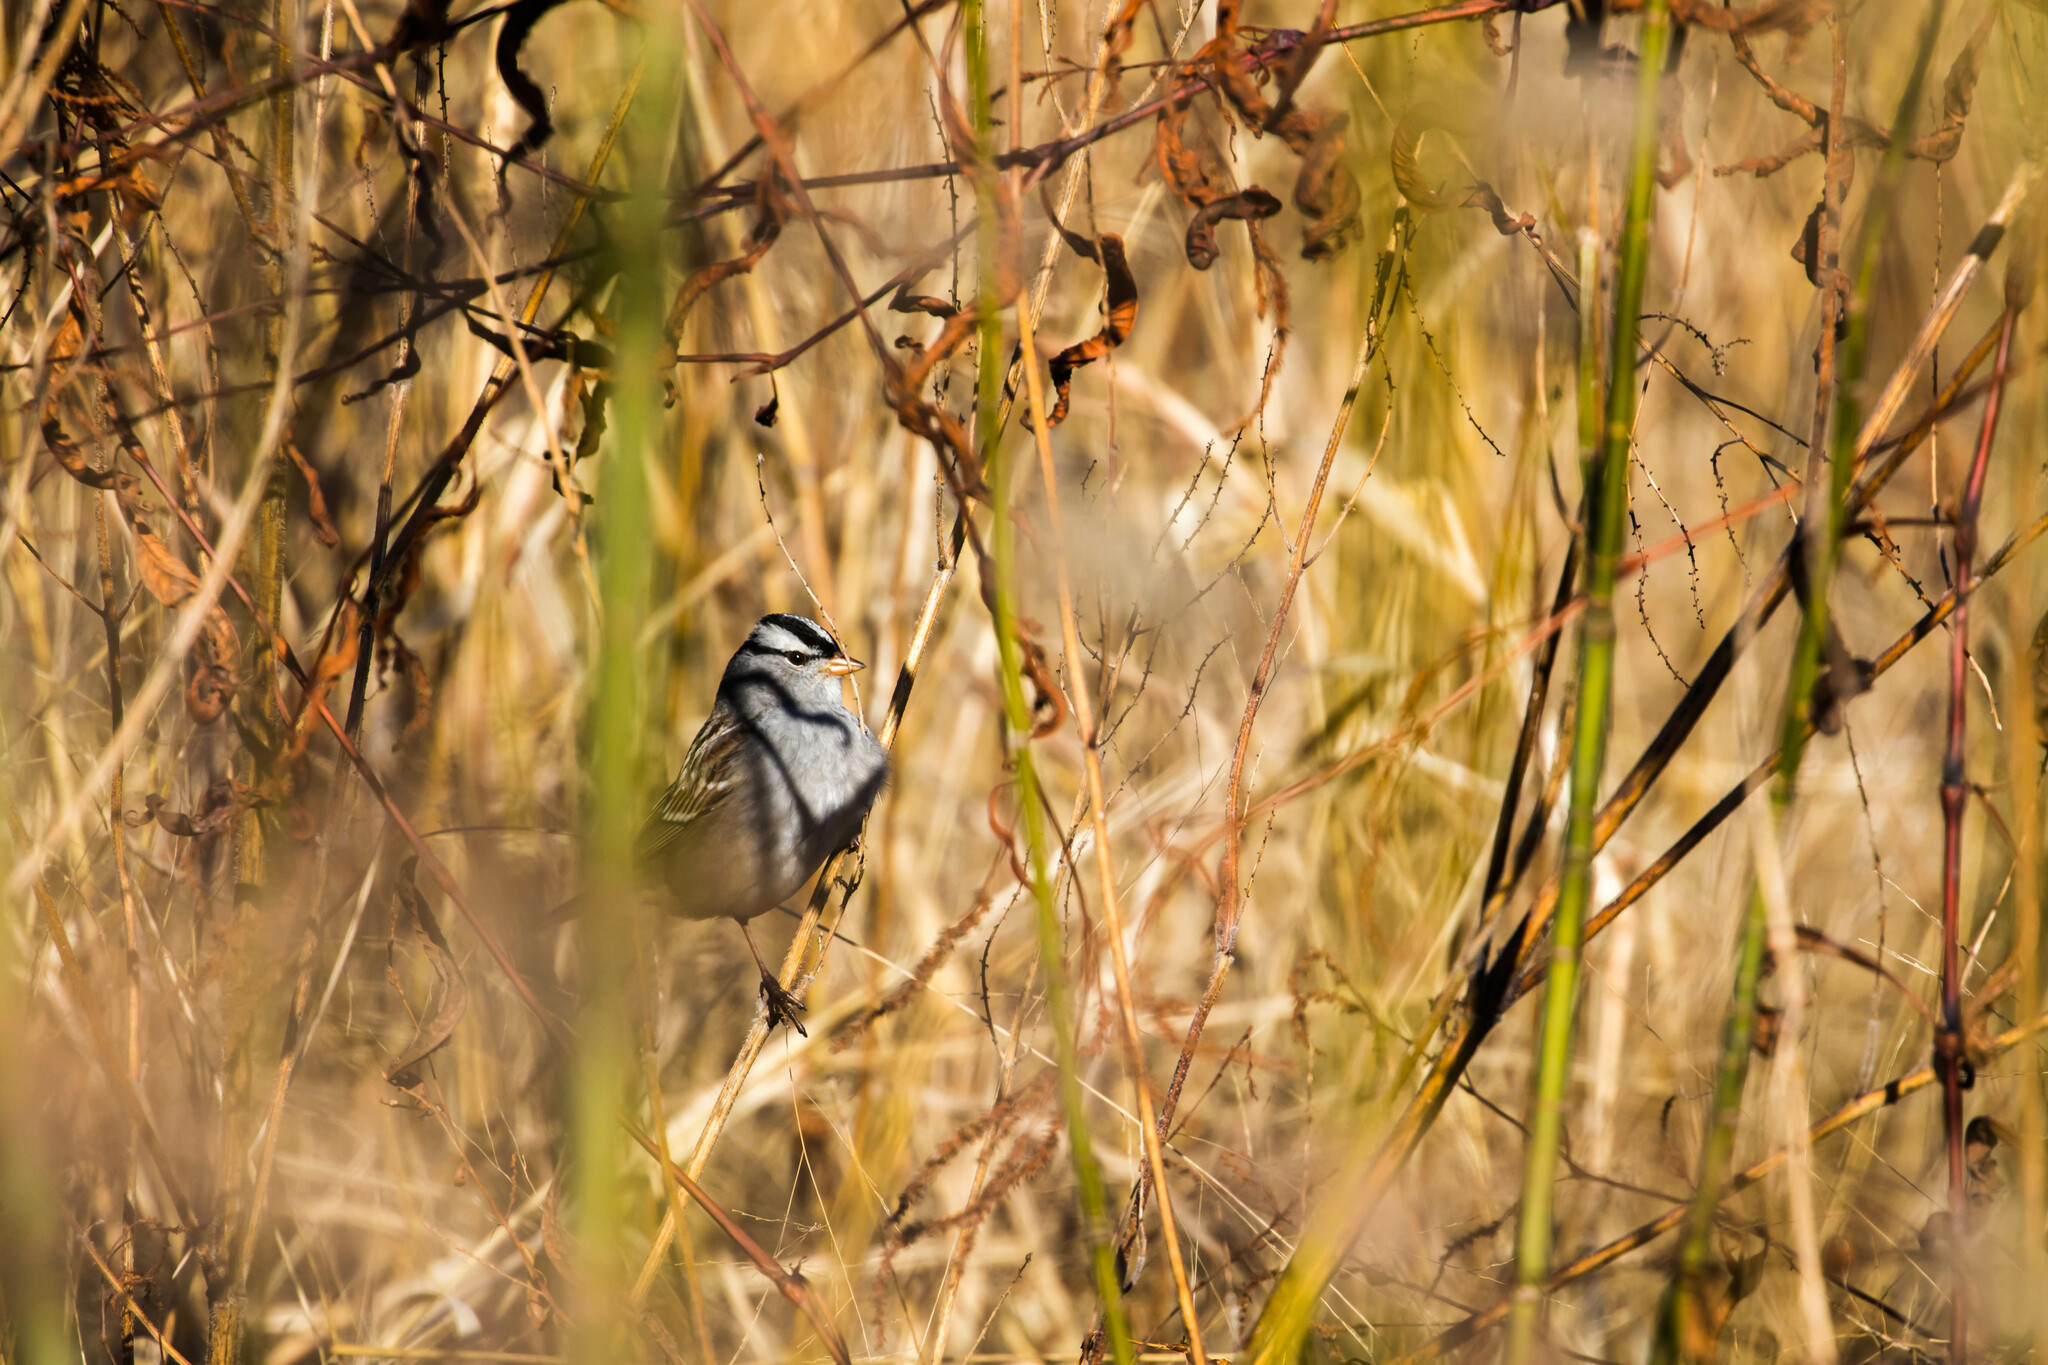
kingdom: Animalia
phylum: Chordata
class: Aves
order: Passeriformes
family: Passerellidae
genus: Zonotrichia
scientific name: Zonotrichia leucophrys
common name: White-crowned sparrow
